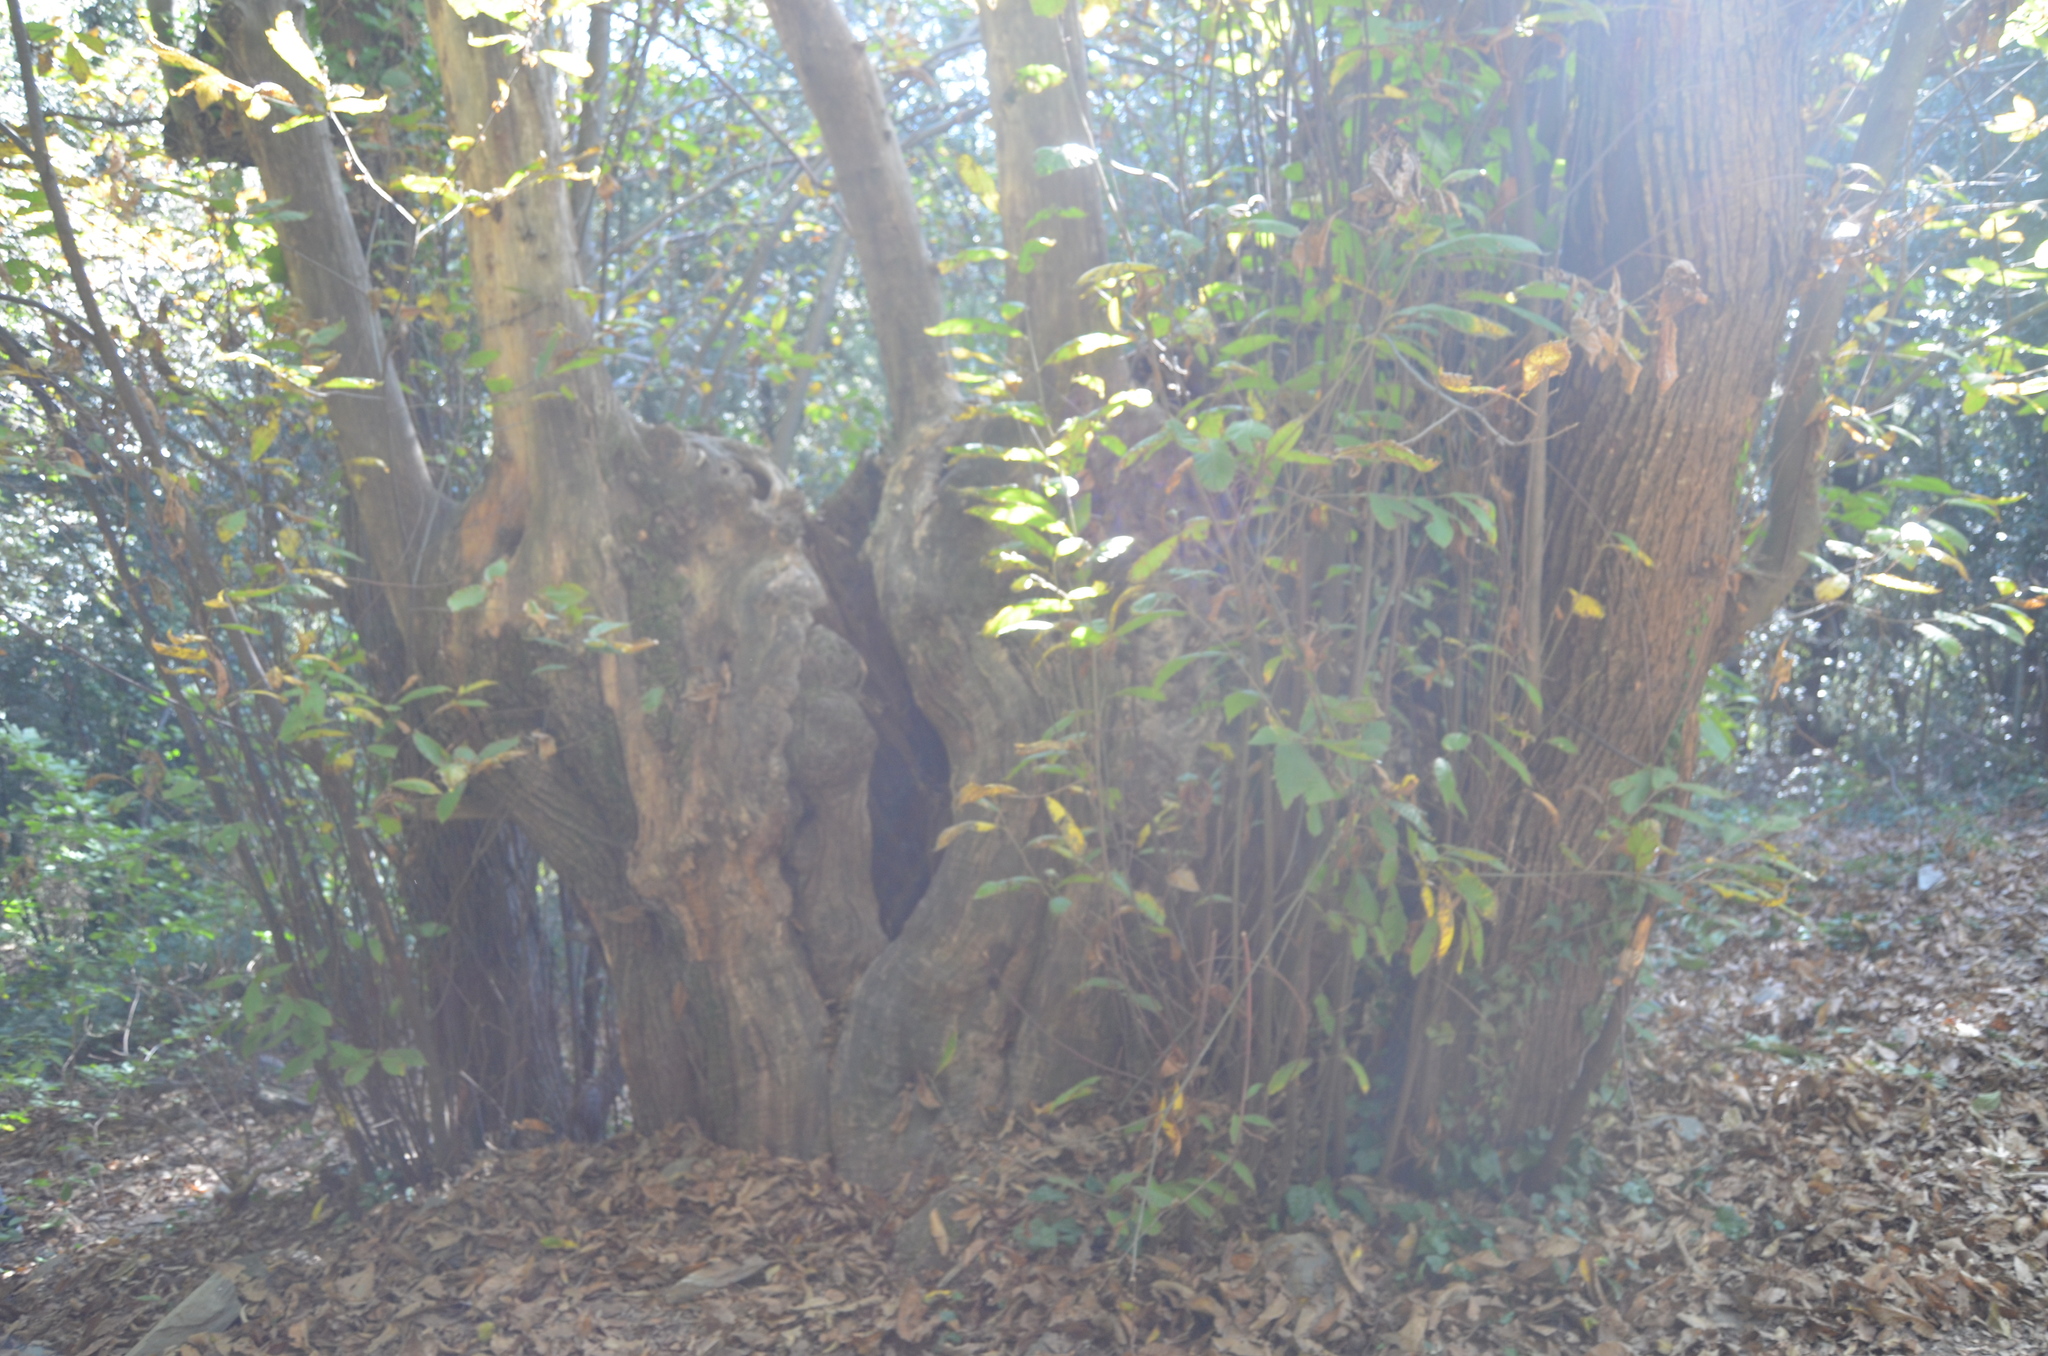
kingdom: Plantae
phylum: Tracheophyta
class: Magnoliopsida
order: Fagales
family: Fagaceae
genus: Castanea
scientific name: Castanea sativa
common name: Sweet chestnut
